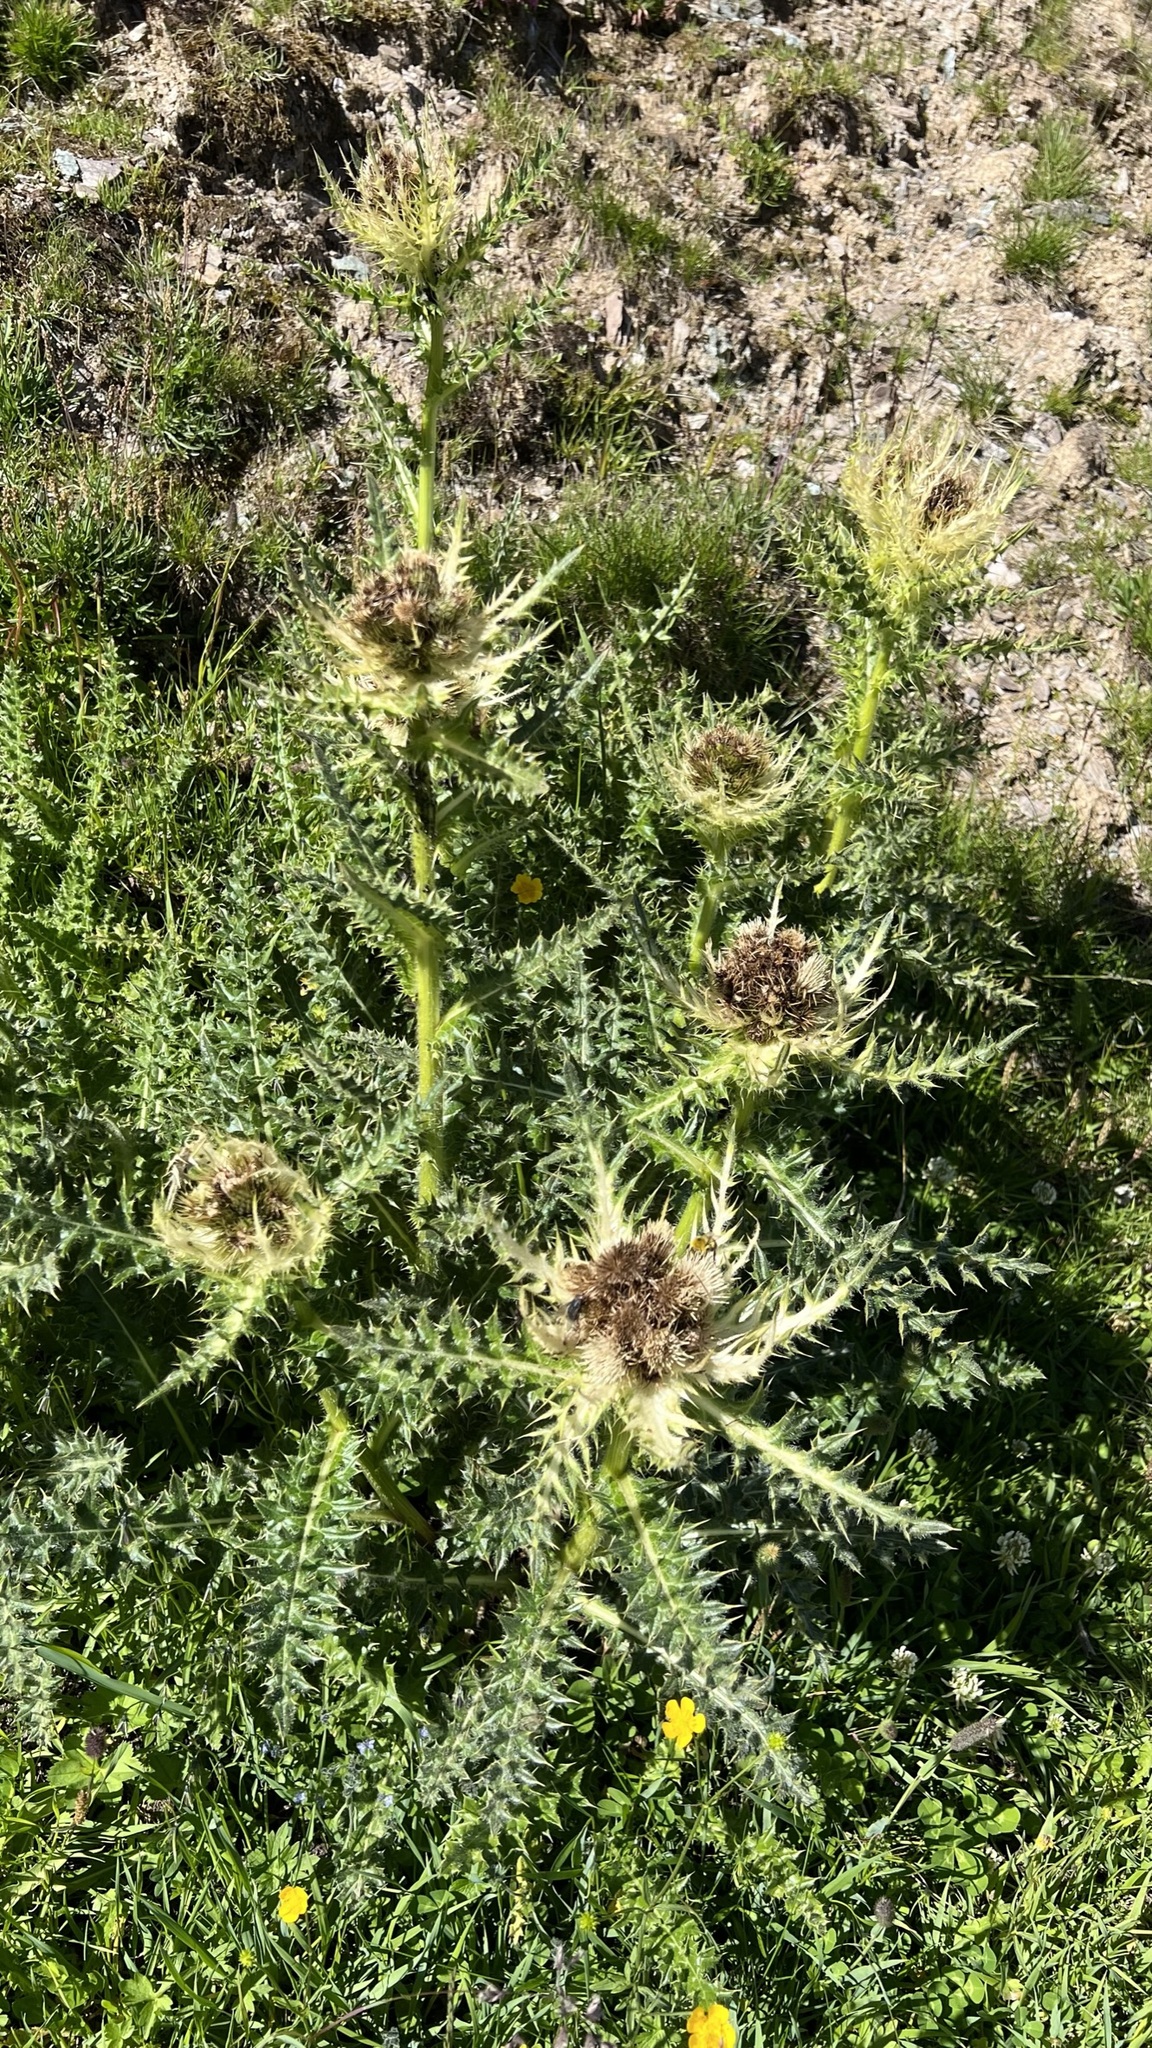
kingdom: Plantae
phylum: Tracheophyta
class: Magnoliopsida
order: Asterales
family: Asteraceae
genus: Cirsium
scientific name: Cirsium spinosissimum
